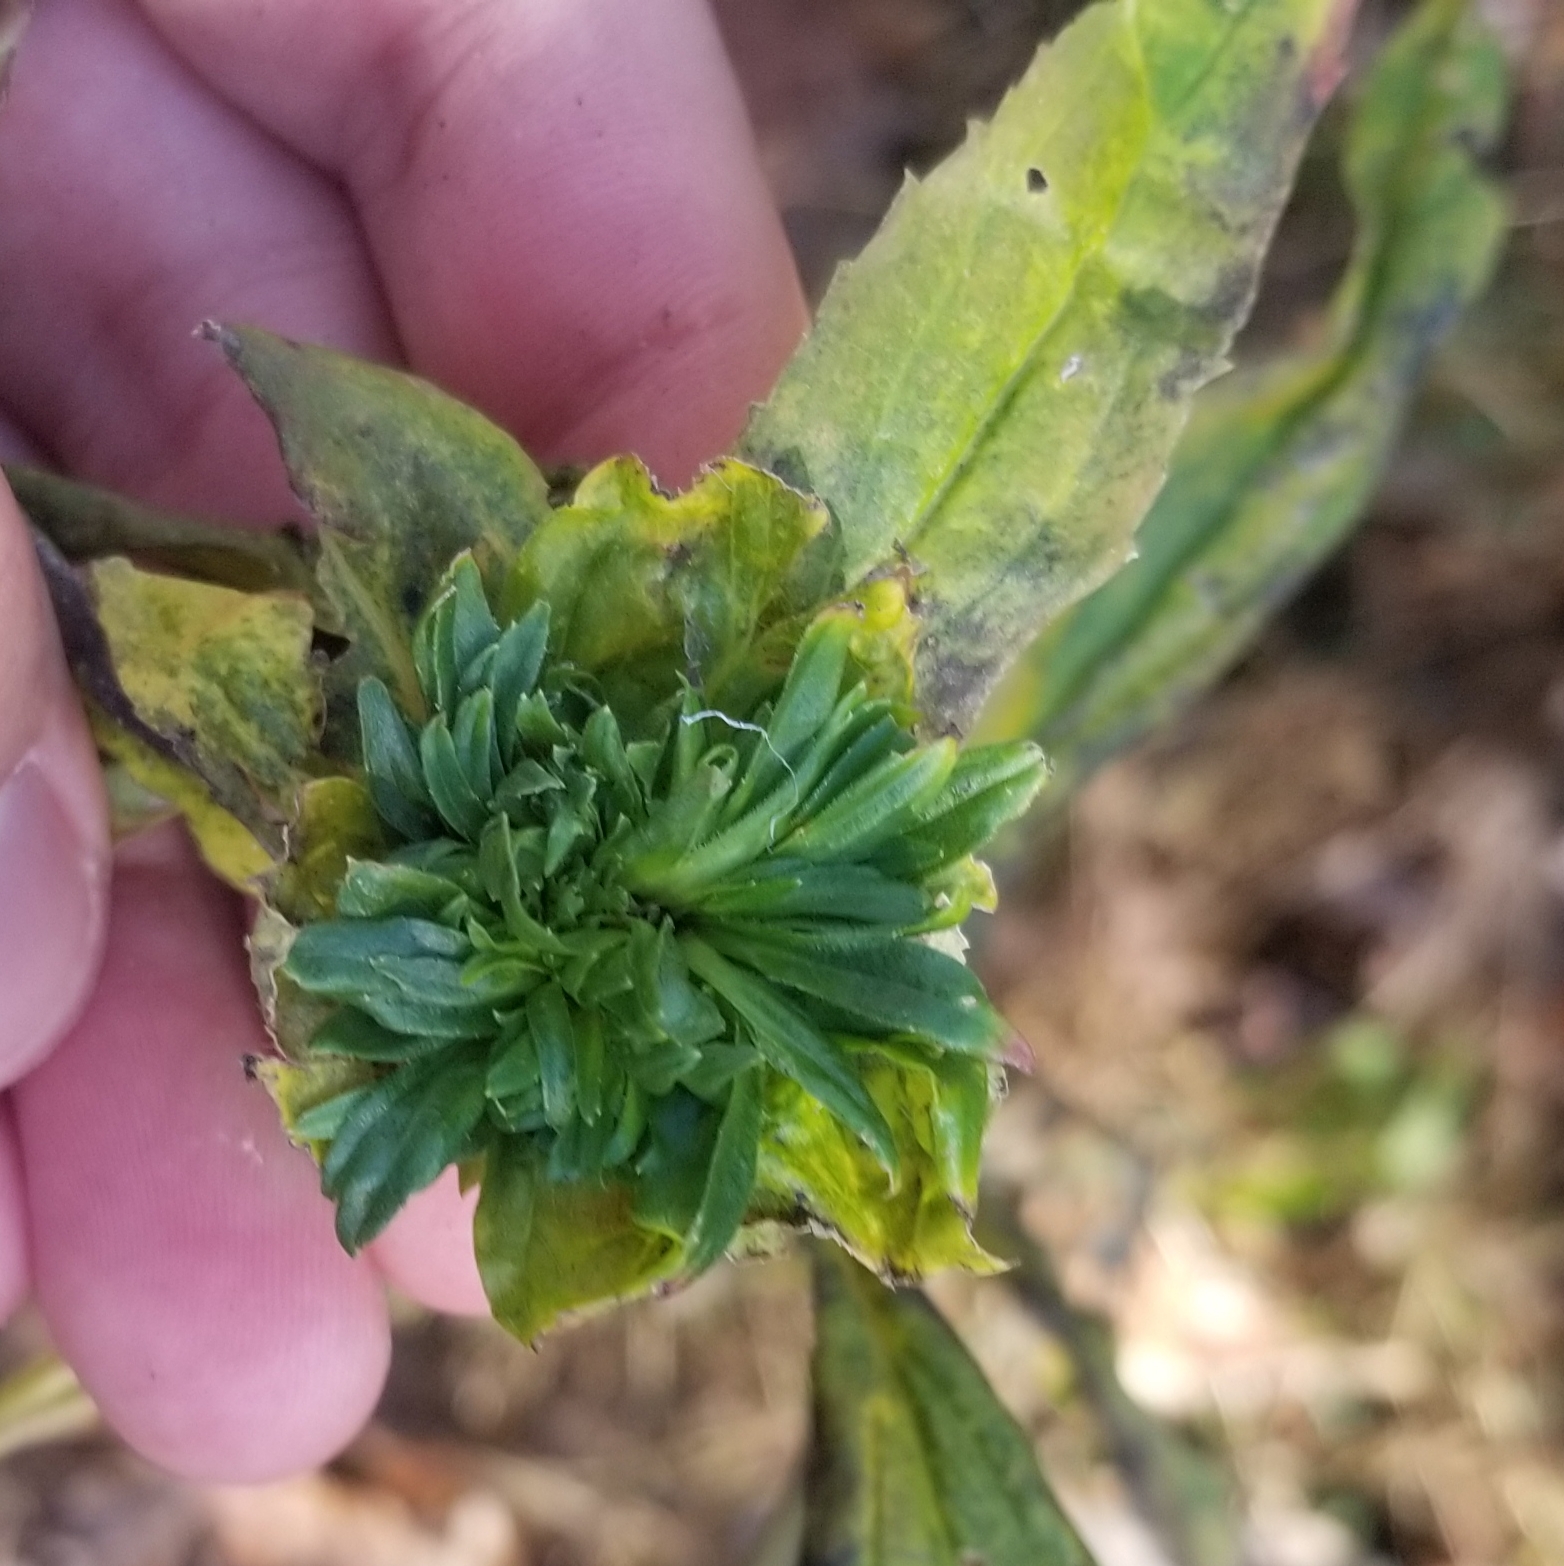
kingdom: Animalia
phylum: Arthropoda
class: Insecta
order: Diptera
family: Cecidomyiidae
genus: Rhopalomyia
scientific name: Rhopalomyia capitata
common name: Giant goldenrod bunch gall midge
